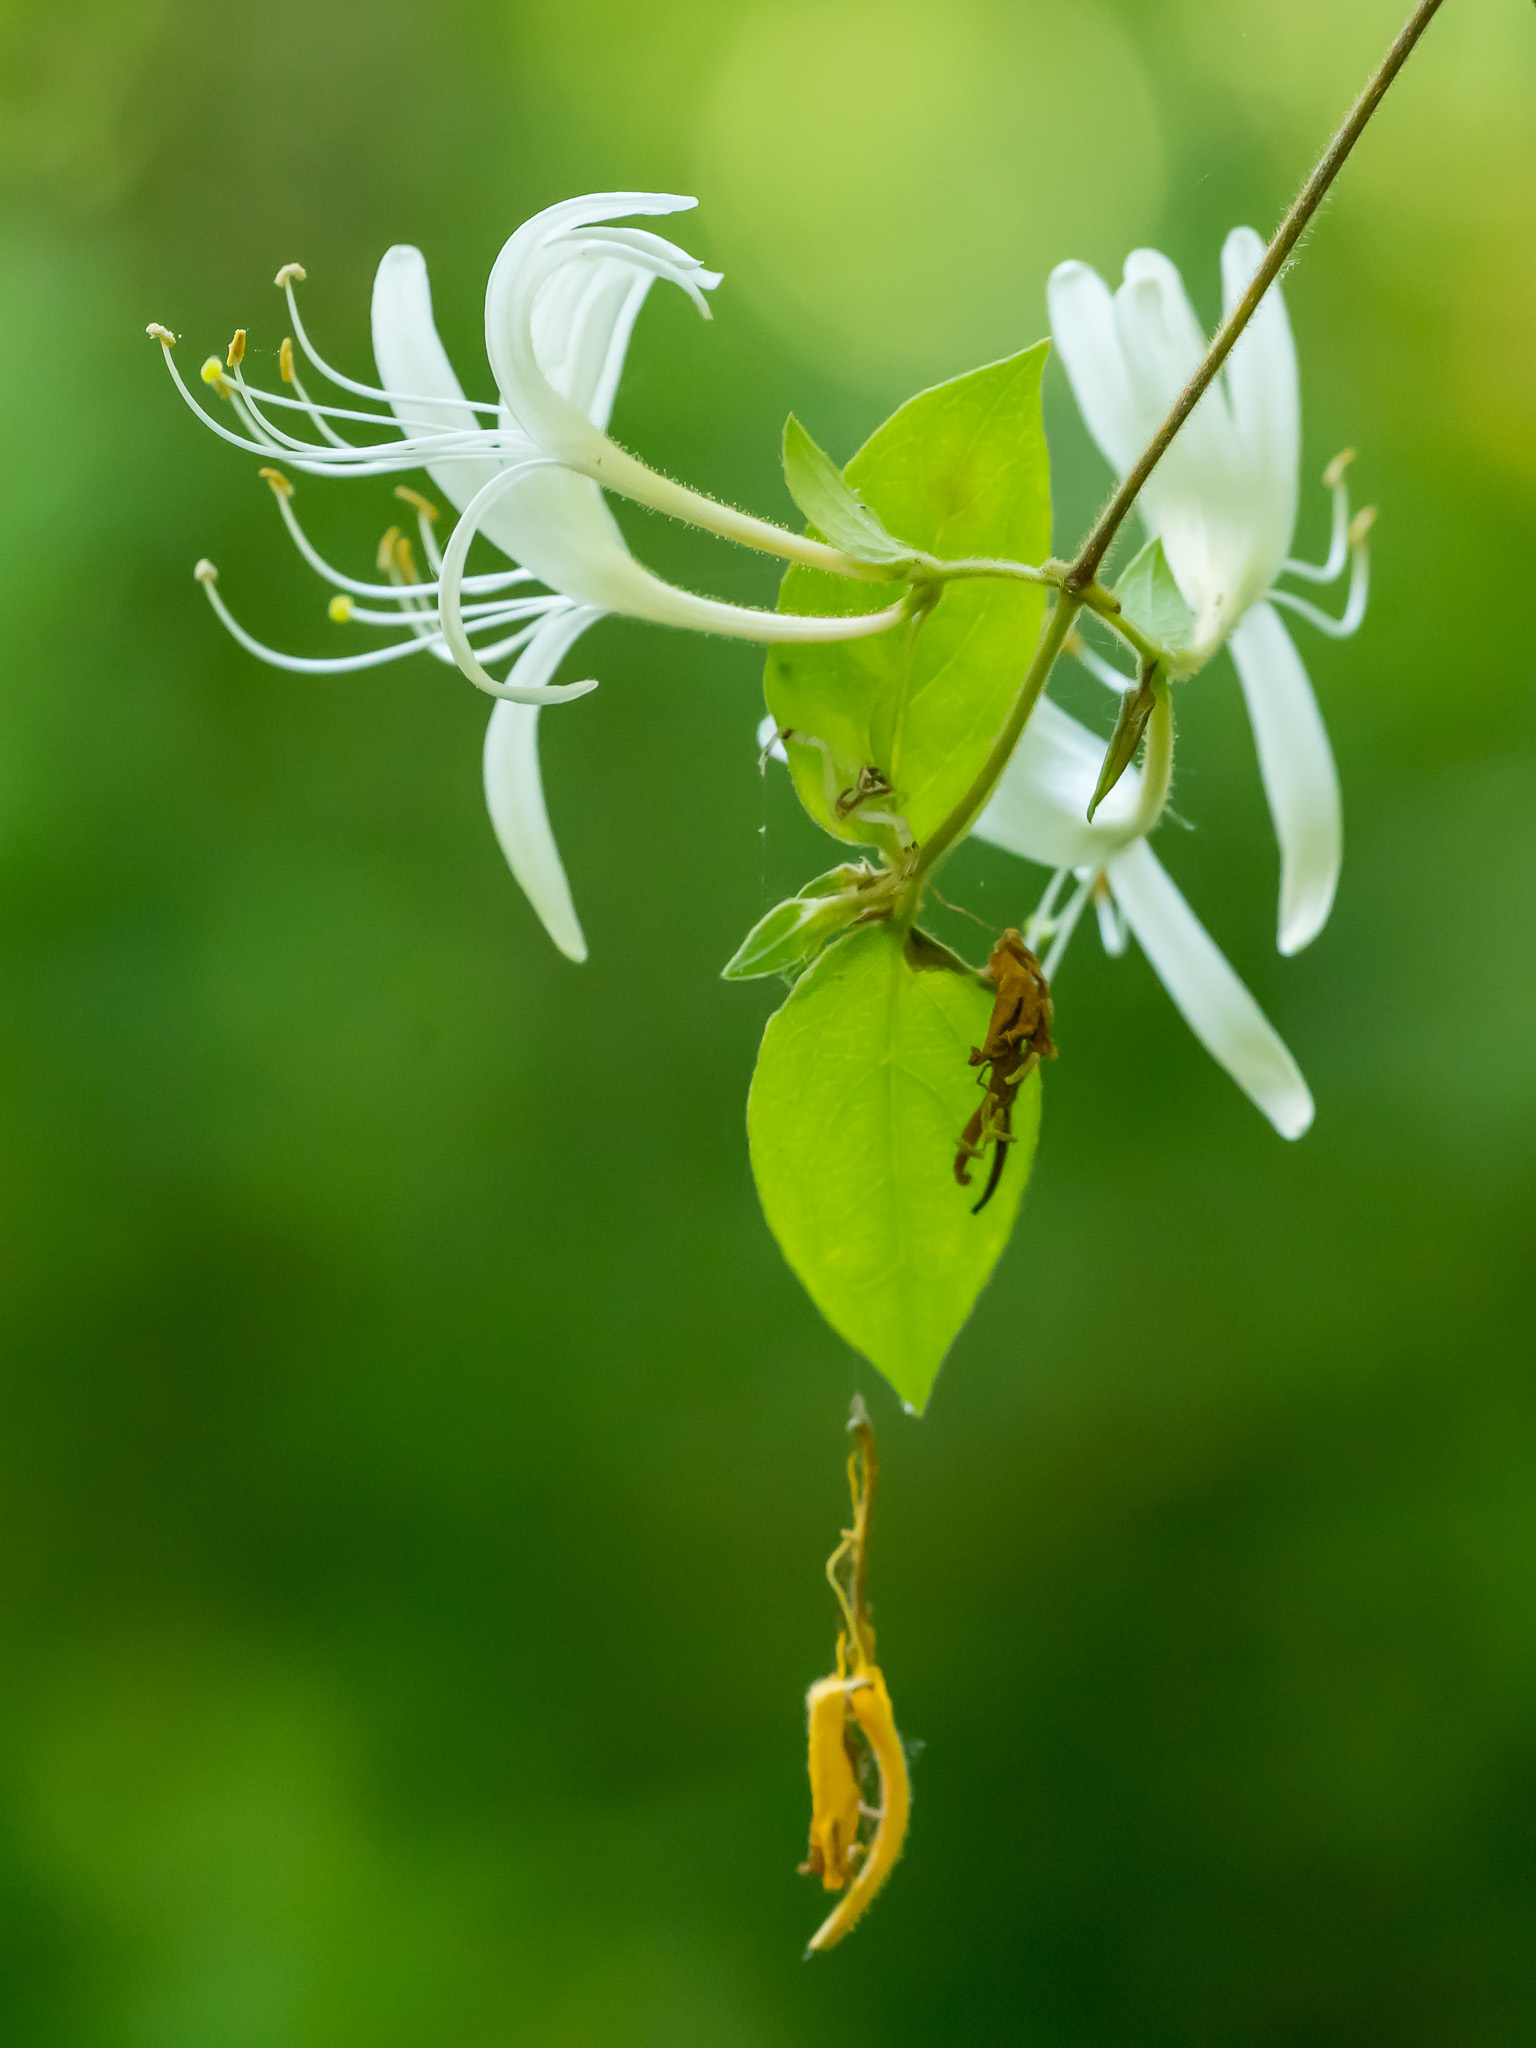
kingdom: Plantae
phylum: Tracheophyta
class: Magnoliopsida
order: Dipsacales
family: Caprifoliaceae
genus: Lonicera
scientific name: Lonicera japonica
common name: Japanese honeysuckle
